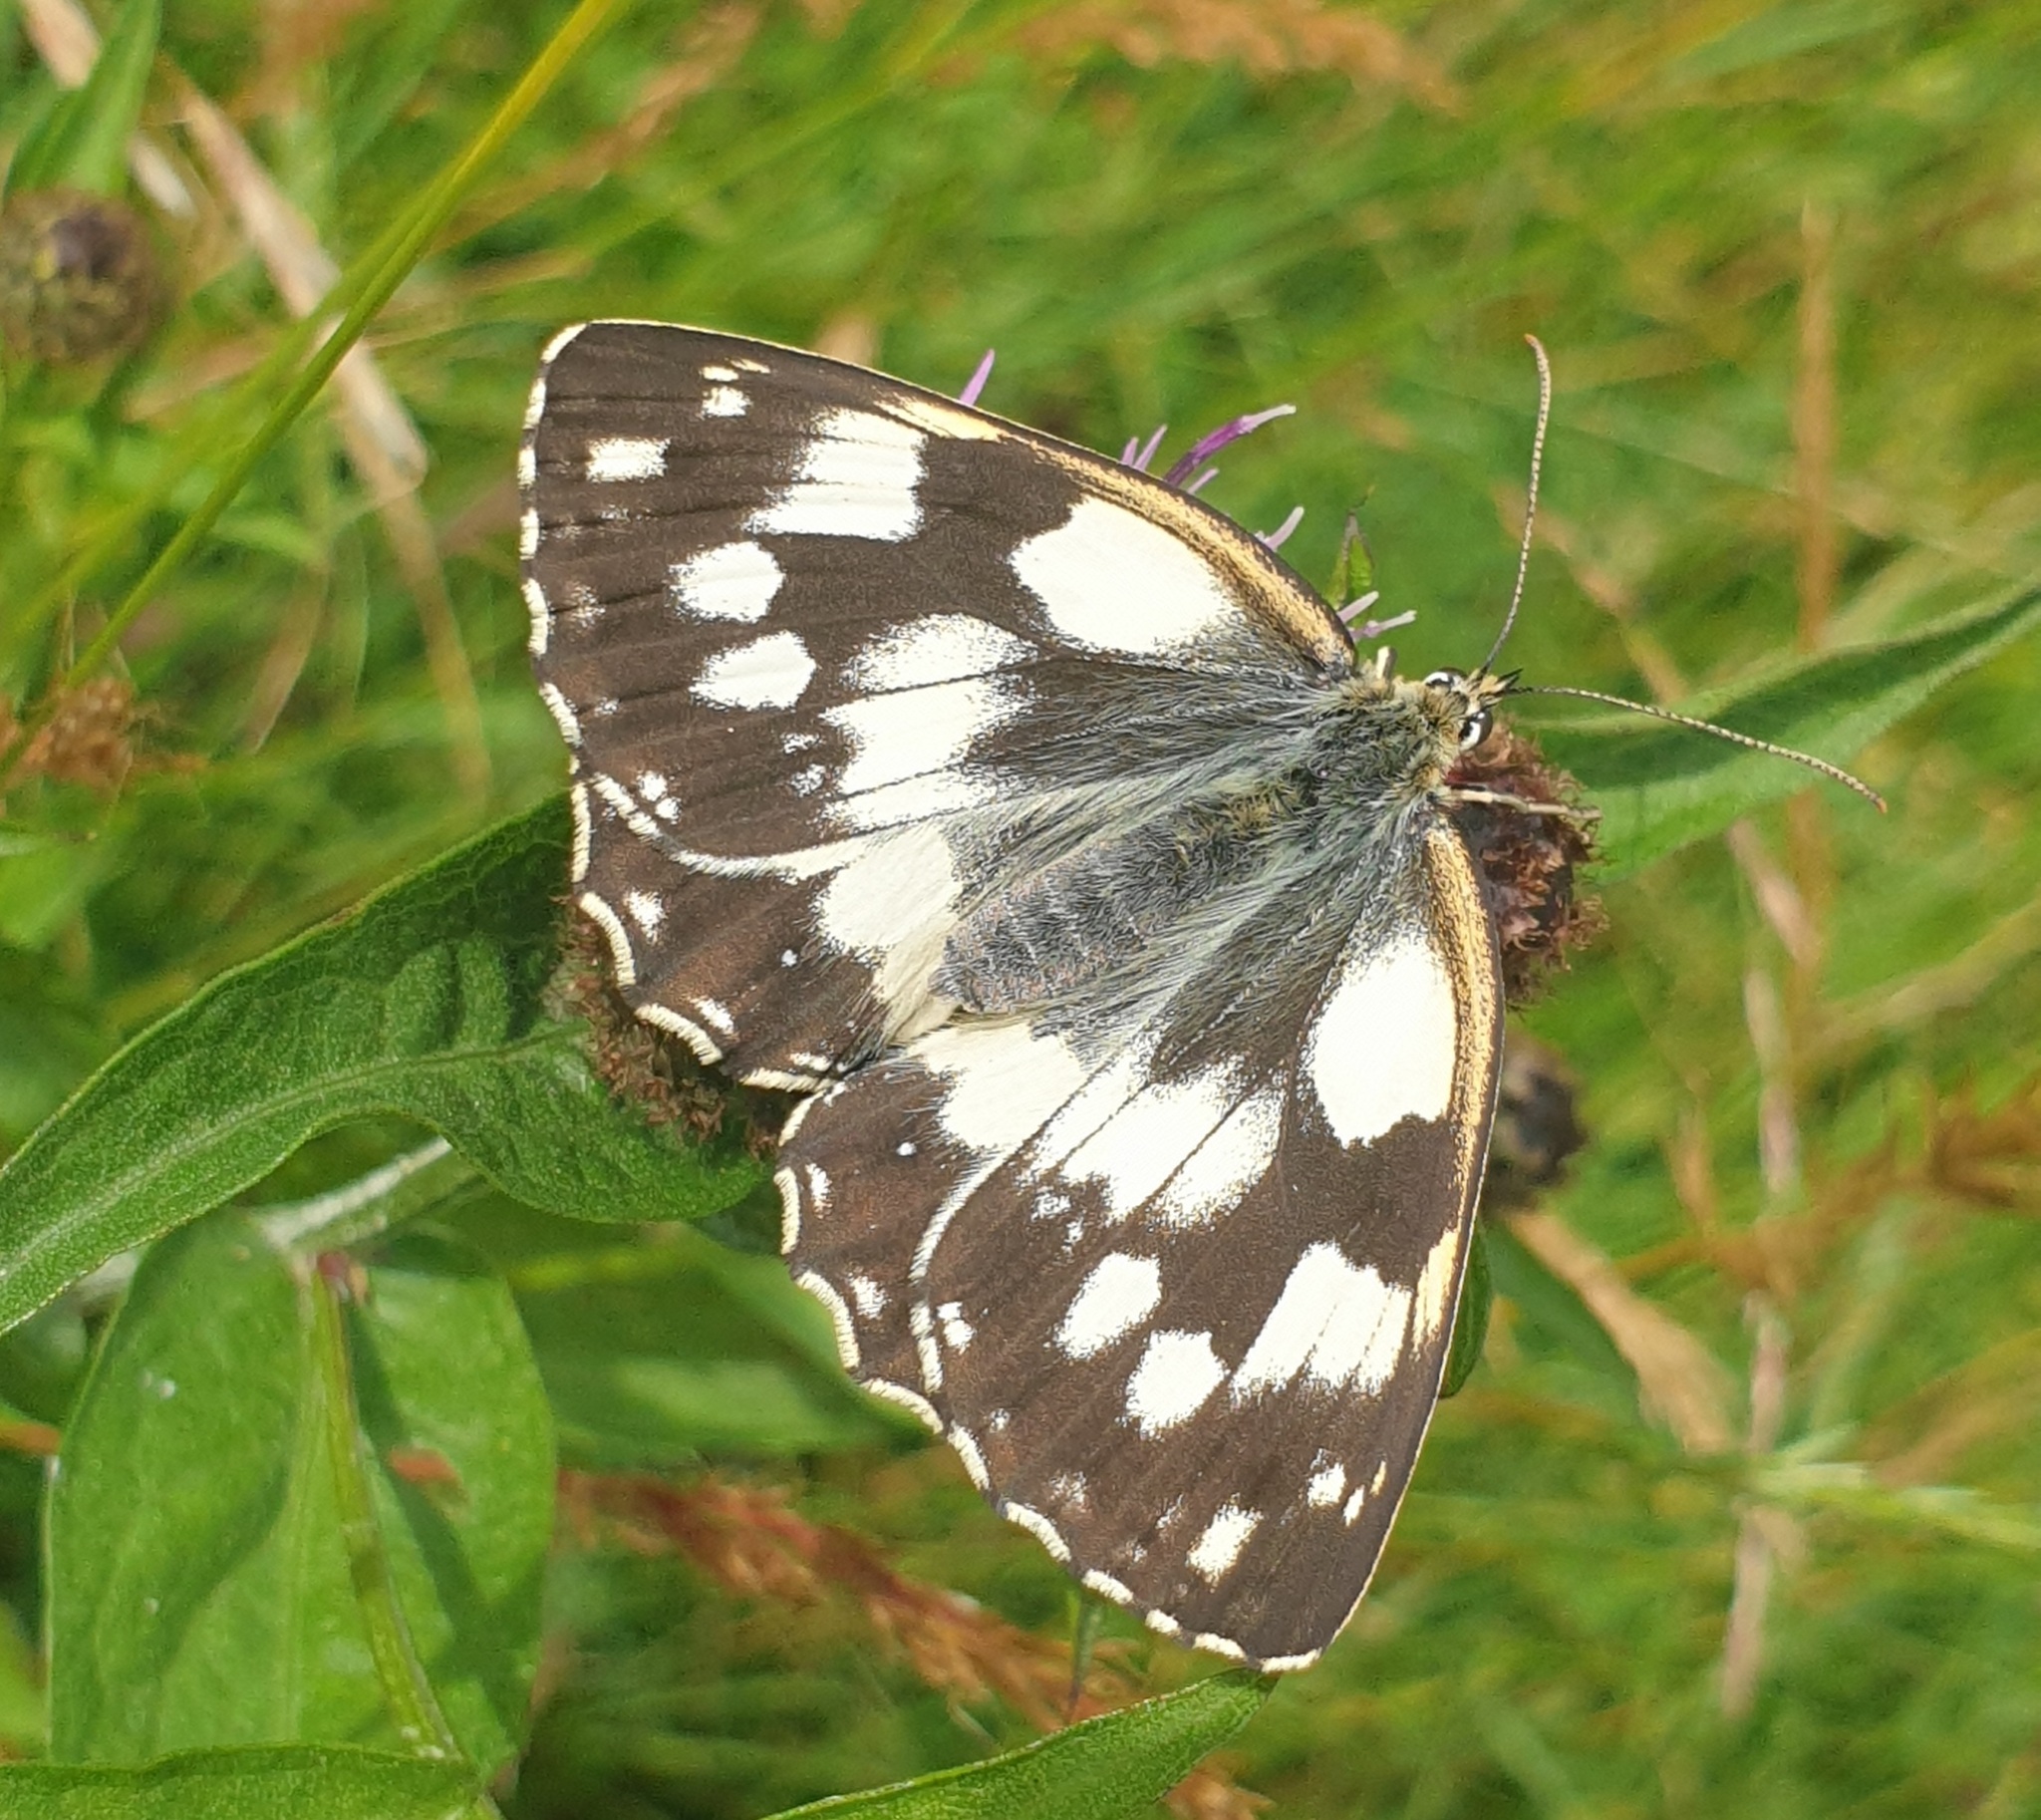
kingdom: Animalia
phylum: Arthropoda
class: Insecta
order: Lepidoptera
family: Nymphalidae
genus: Melanargia
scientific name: Melanargia galathea
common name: Marbled white
